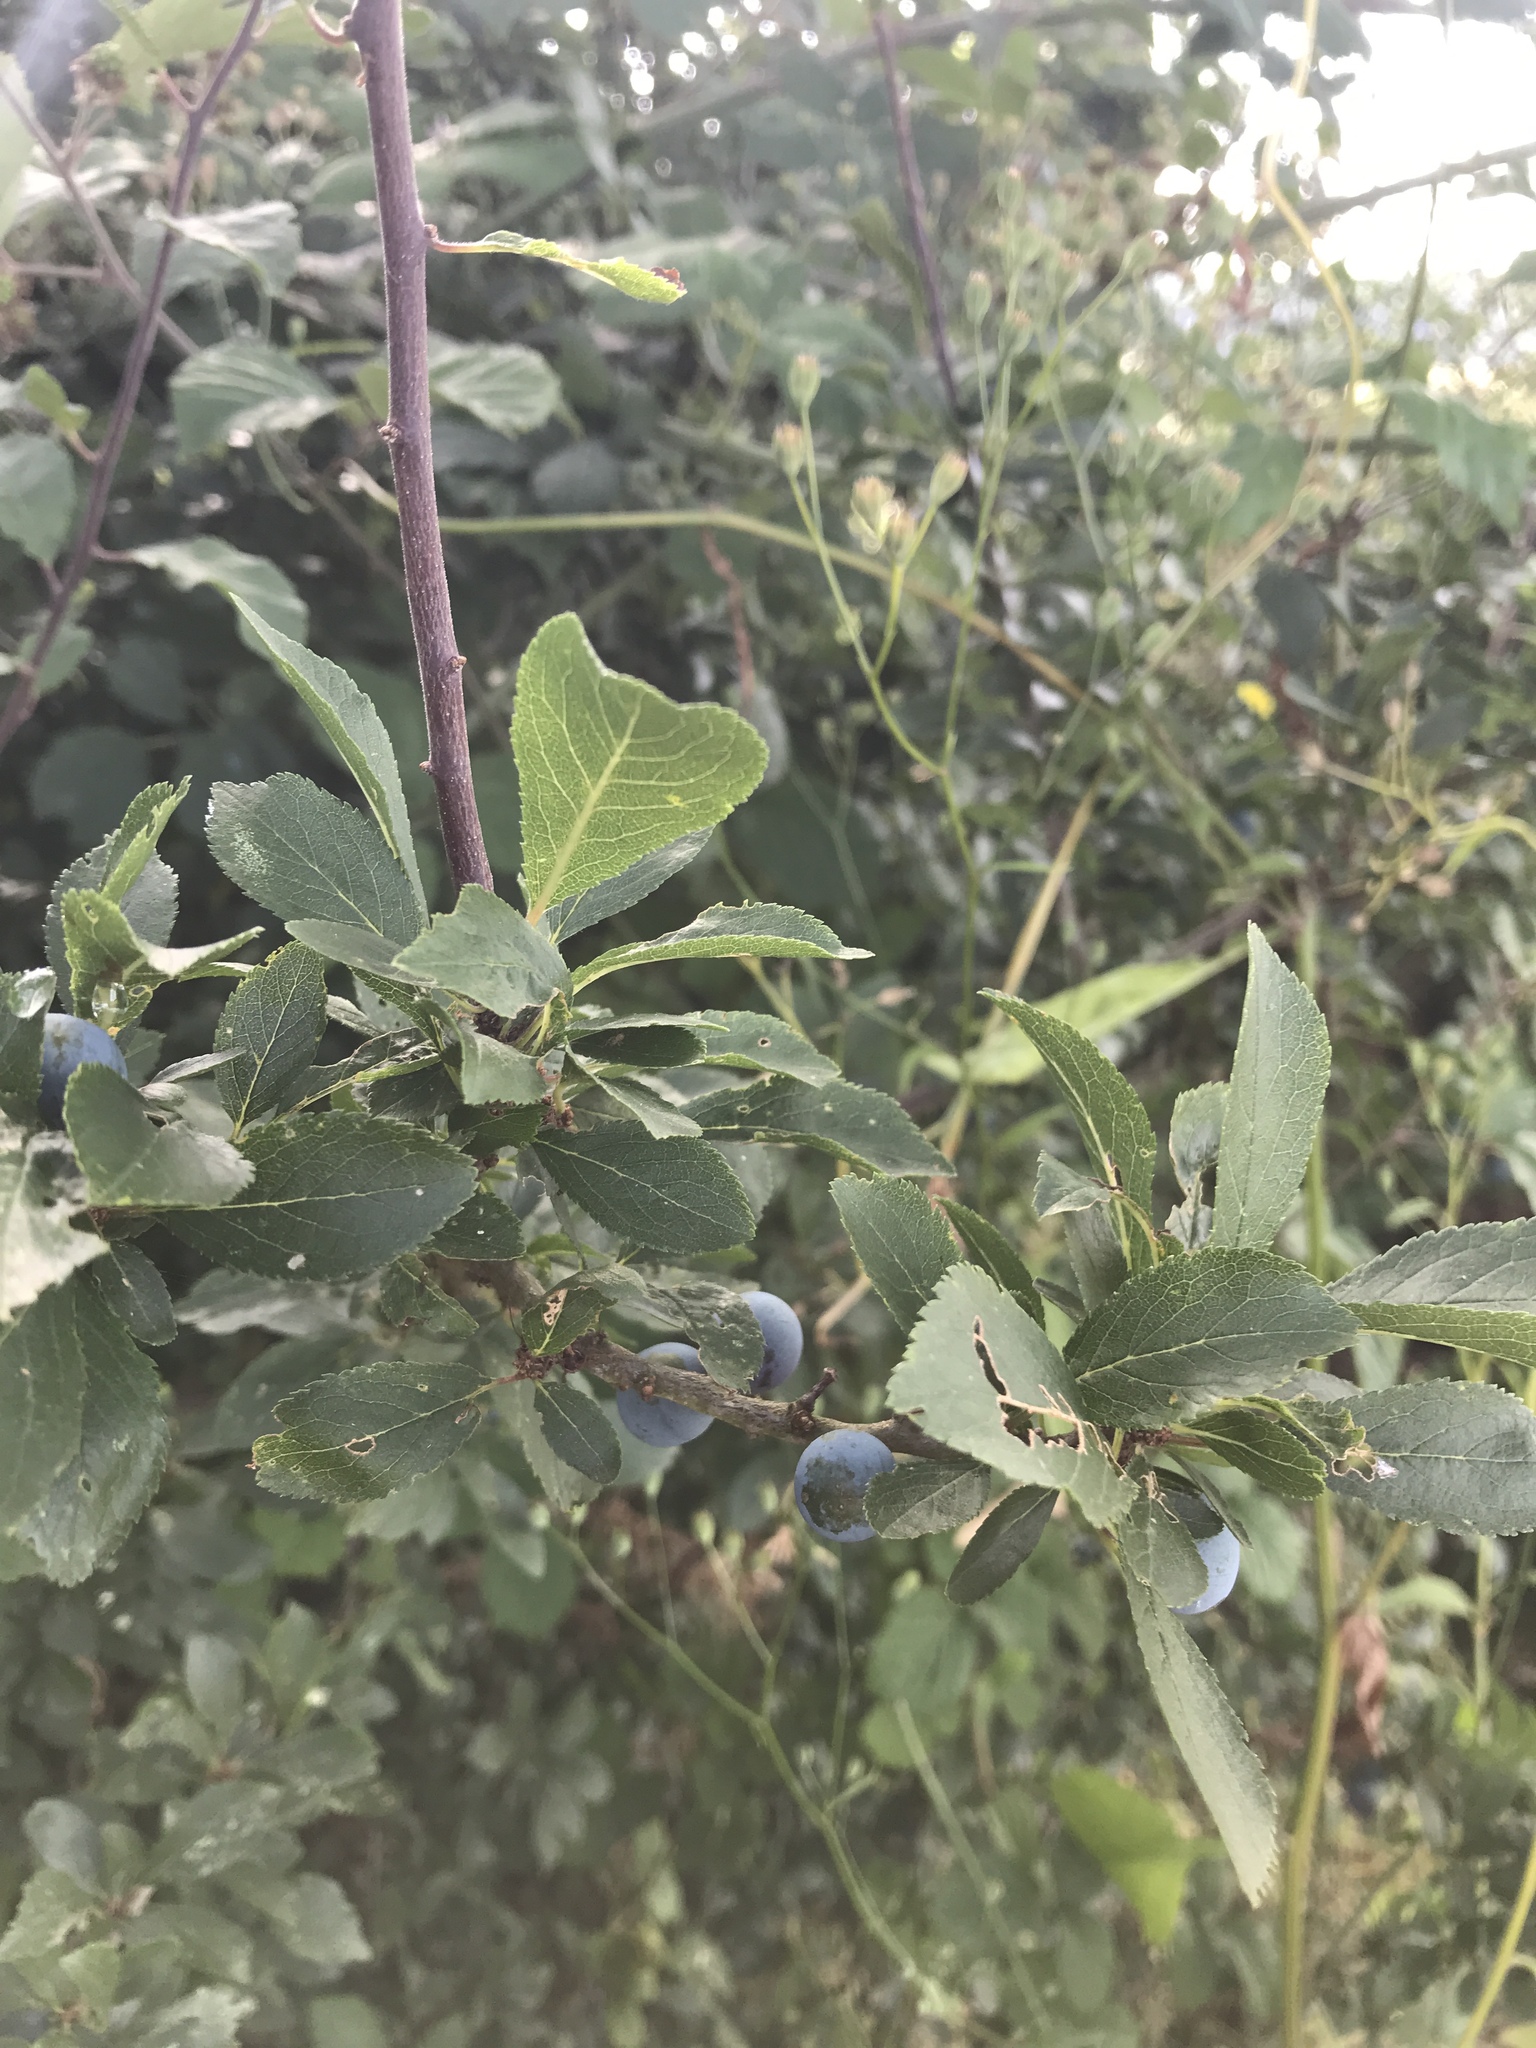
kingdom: Plantae
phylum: Tracheophyta
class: Magnoliopsida
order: Rosales
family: Rosaceae
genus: Prunus
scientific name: Prunus spinosa
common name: Blackthorn
